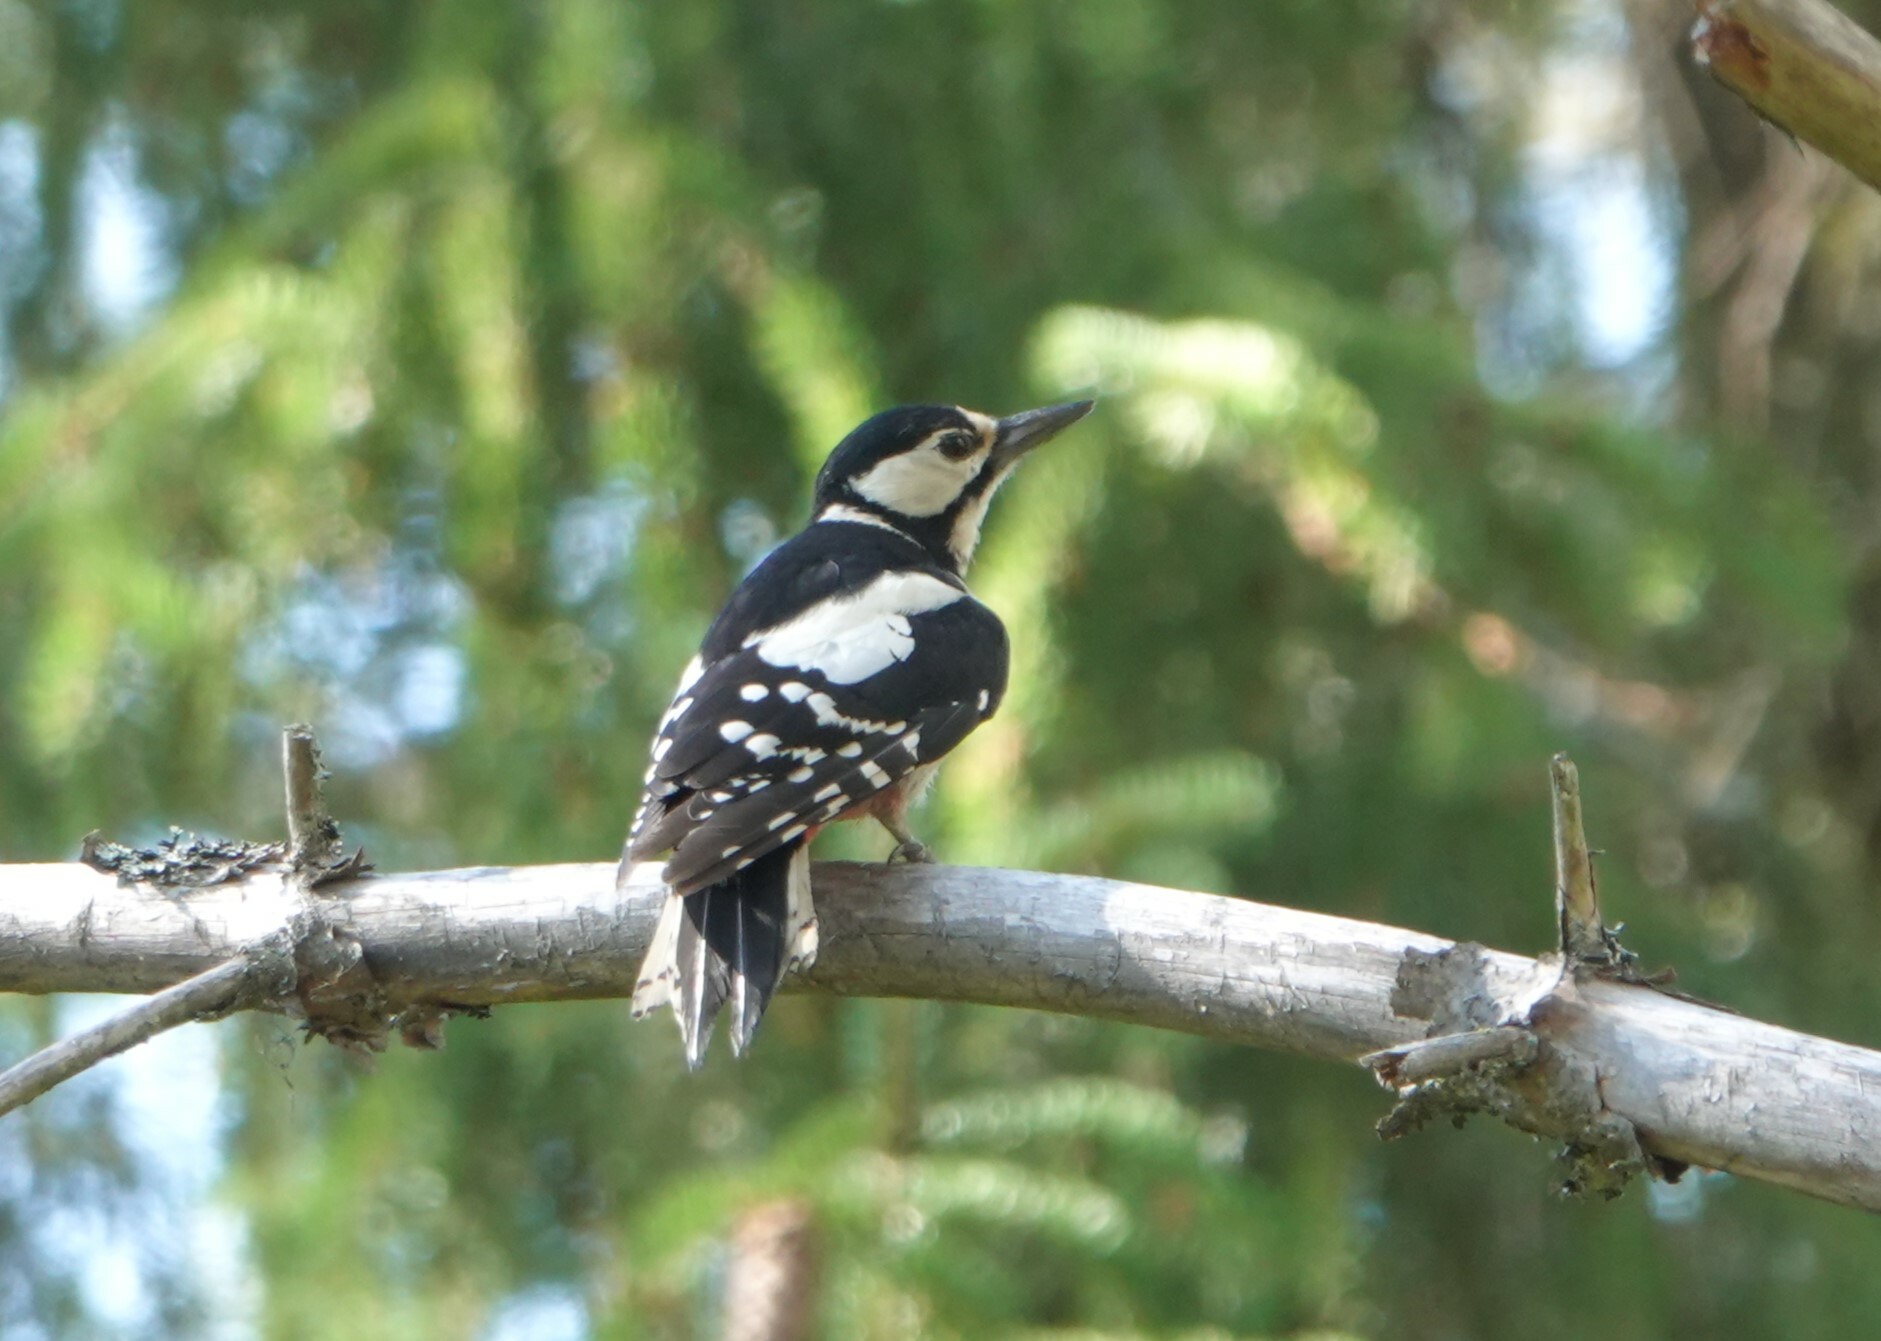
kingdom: Animalia
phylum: Chordata
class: Aves
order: Piciformes
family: Picidae
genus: Dendrocopos
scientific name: Dendrocopos major
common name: Great spotted woodpecker
